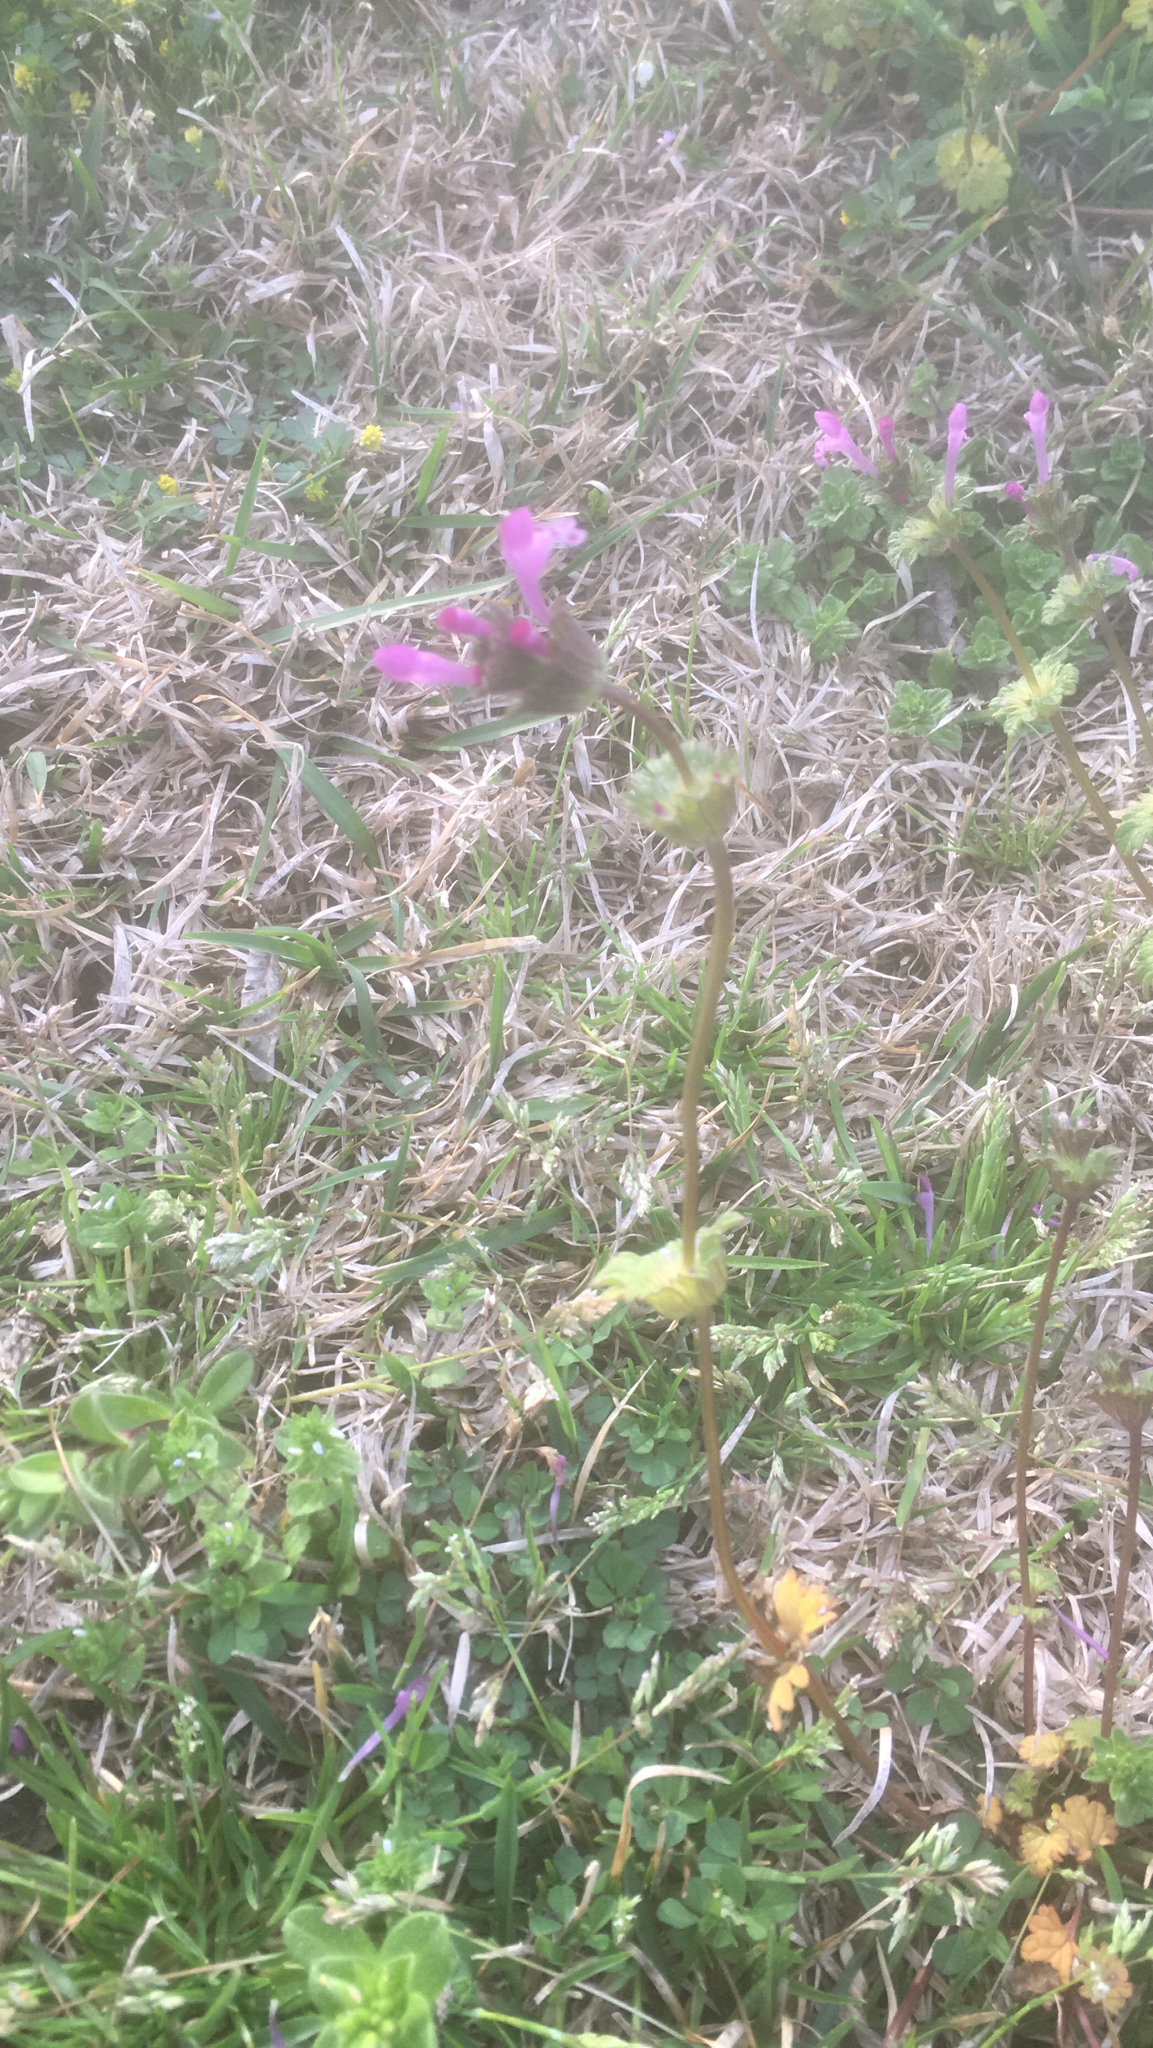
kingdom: Plantae
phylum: Tracheophyta
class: Magnoliopsida
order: Lamiales
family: Lamiaceae
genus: Lamium
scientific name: Lamium amplexicaule
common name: Henbit dead-nettle
